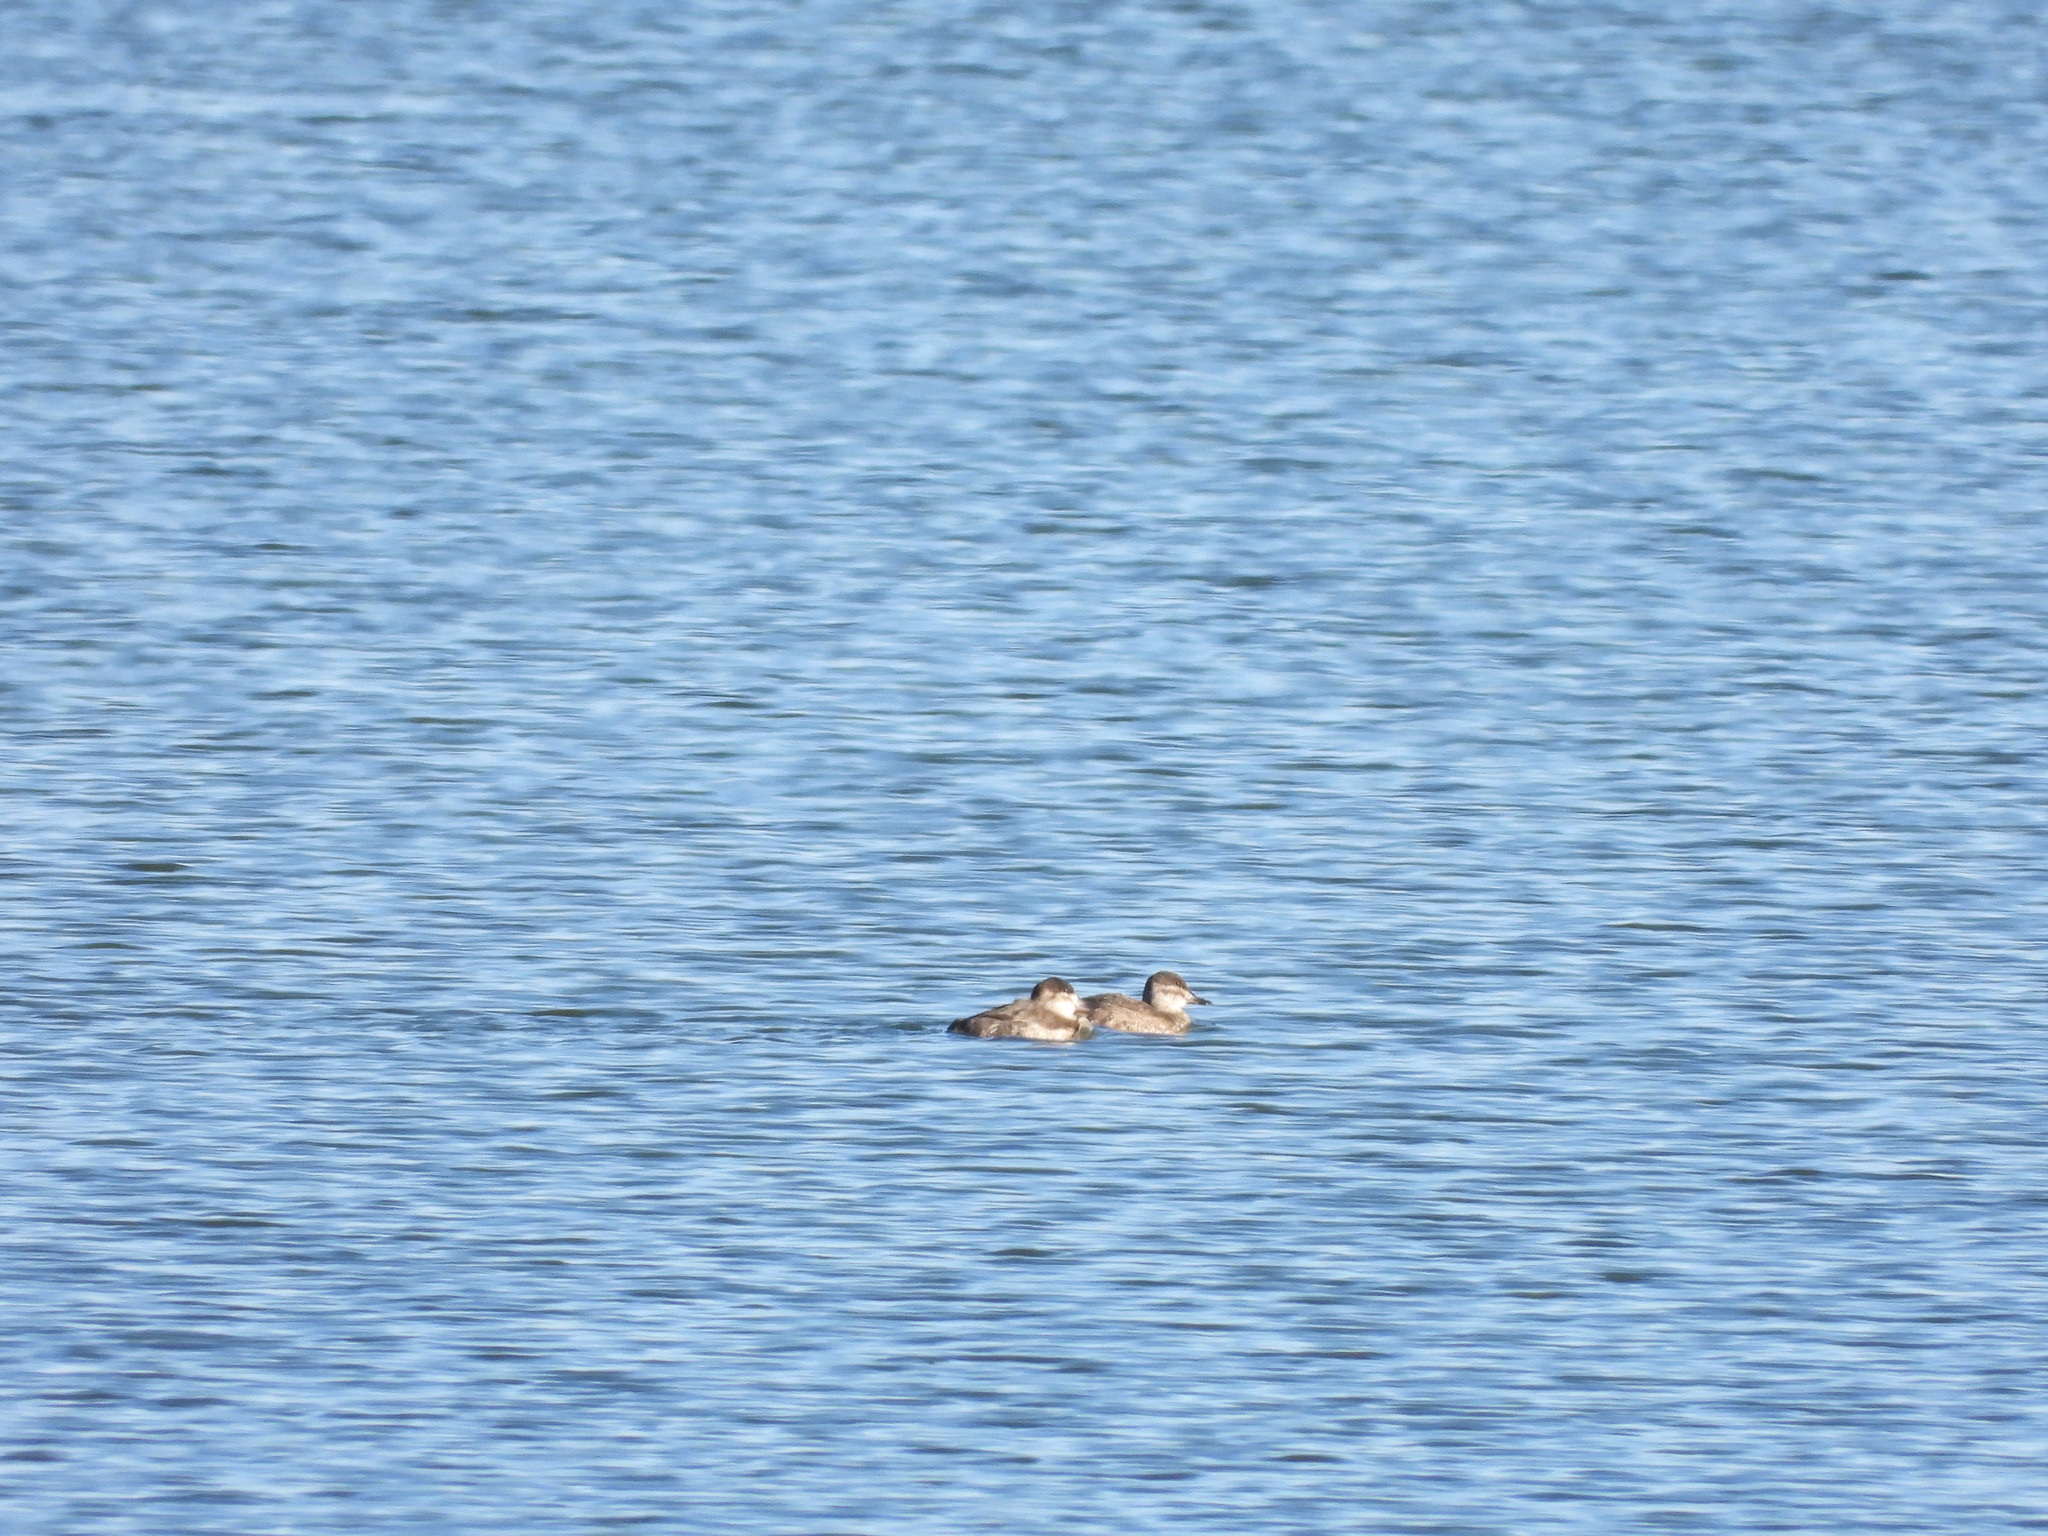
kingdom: Animalia
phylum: Chordata
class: Aves
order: Anseriformes
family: Anatidae
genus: Oxyura
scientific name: Oxyura jamaicensis
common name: Ruddy duck
